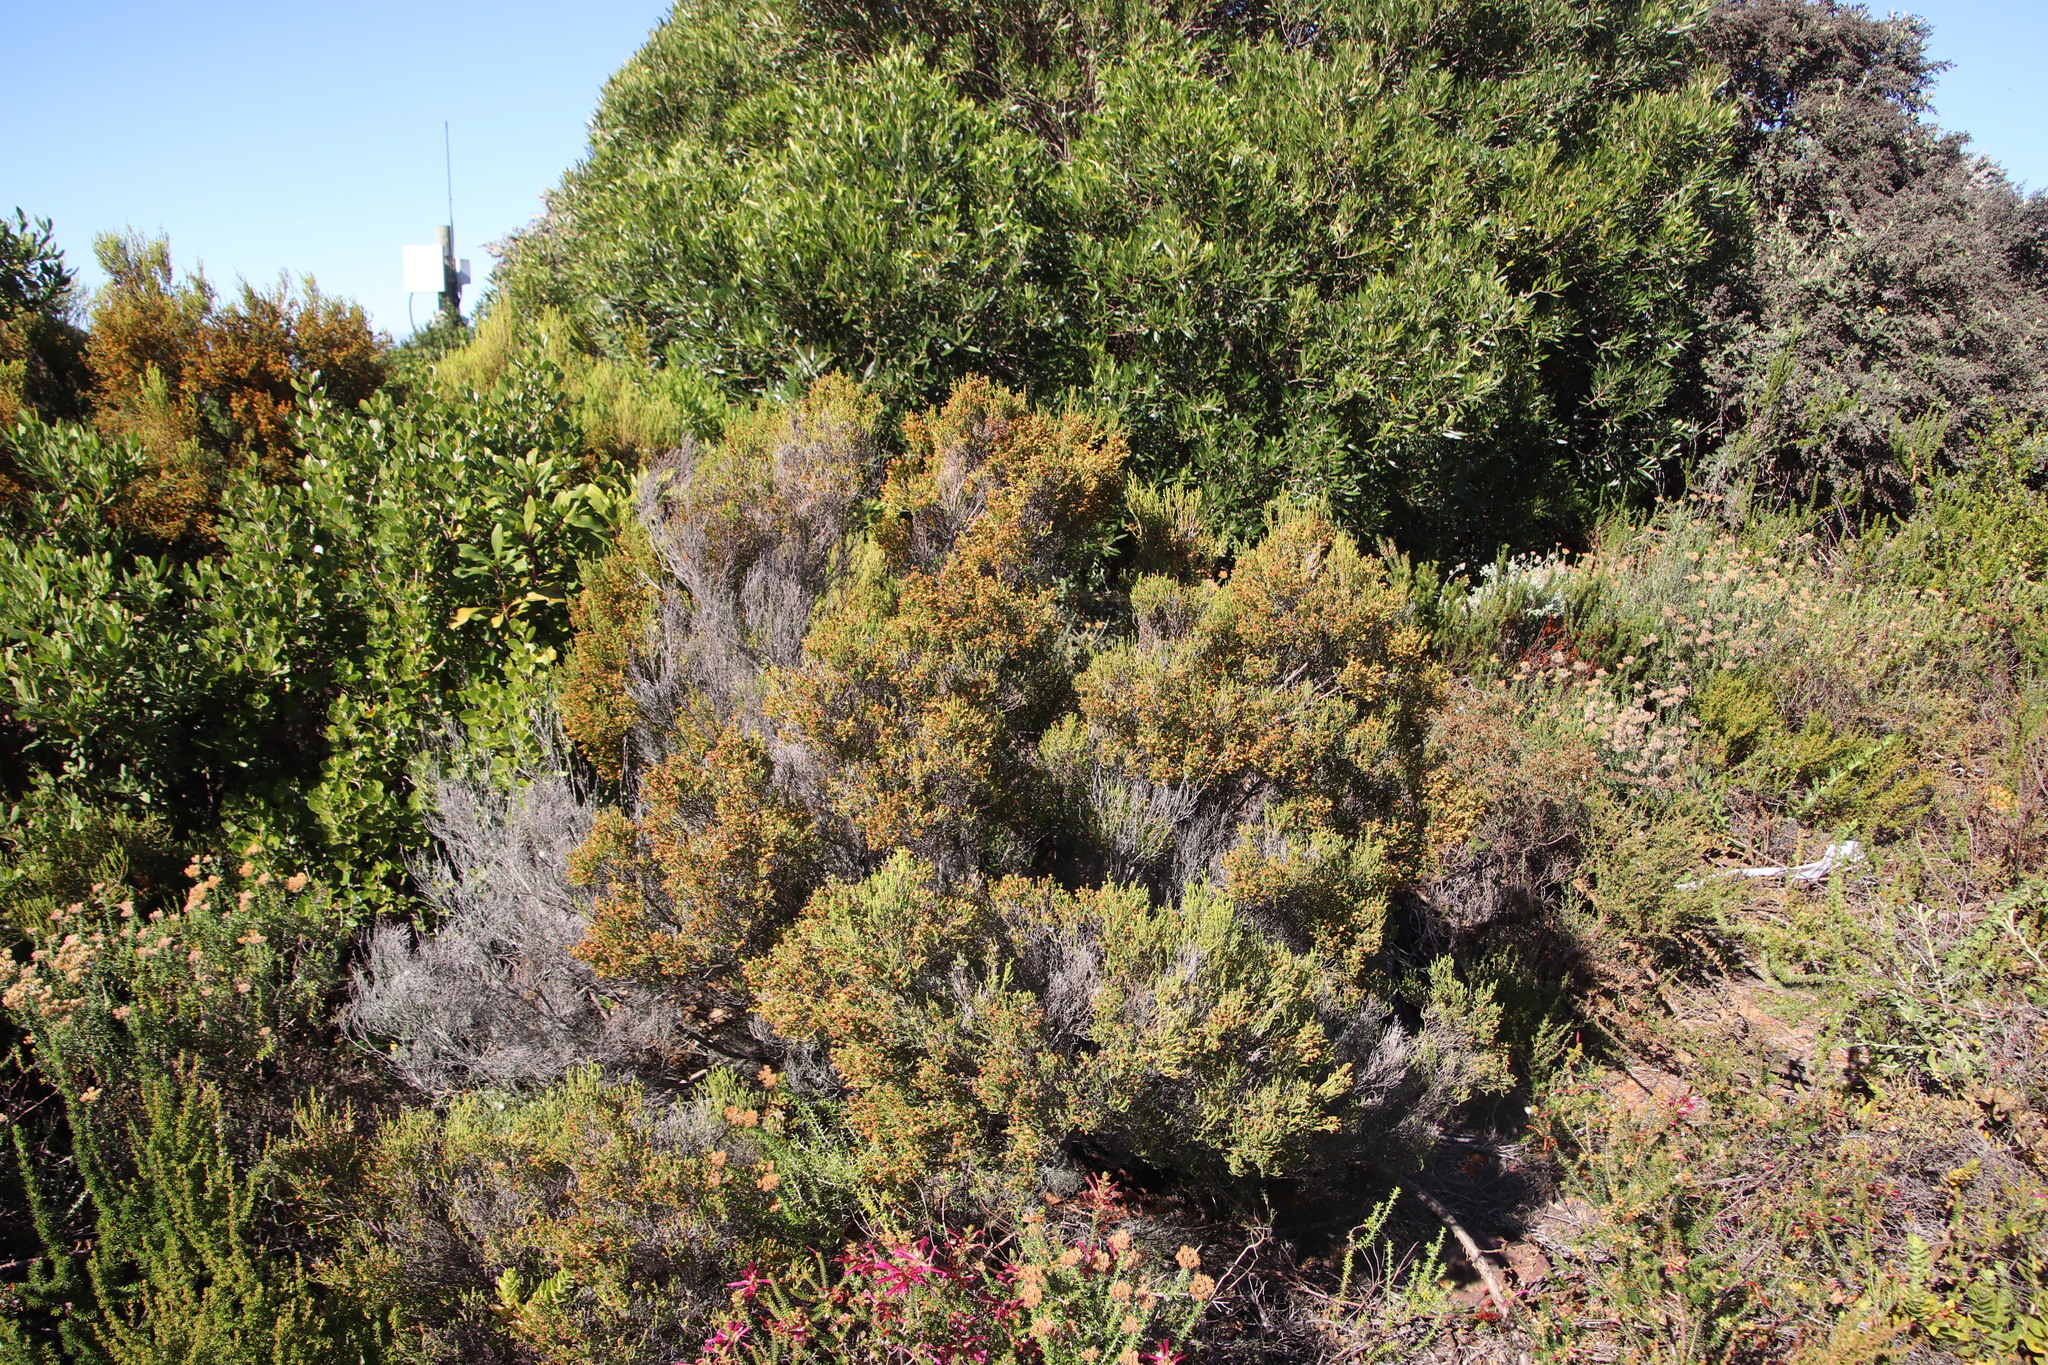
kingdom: Plantae
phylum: Tracheophyta
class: Magnoliopsida
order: Ericales
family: Ericaceae
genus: Erica
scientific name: Erica tristis
